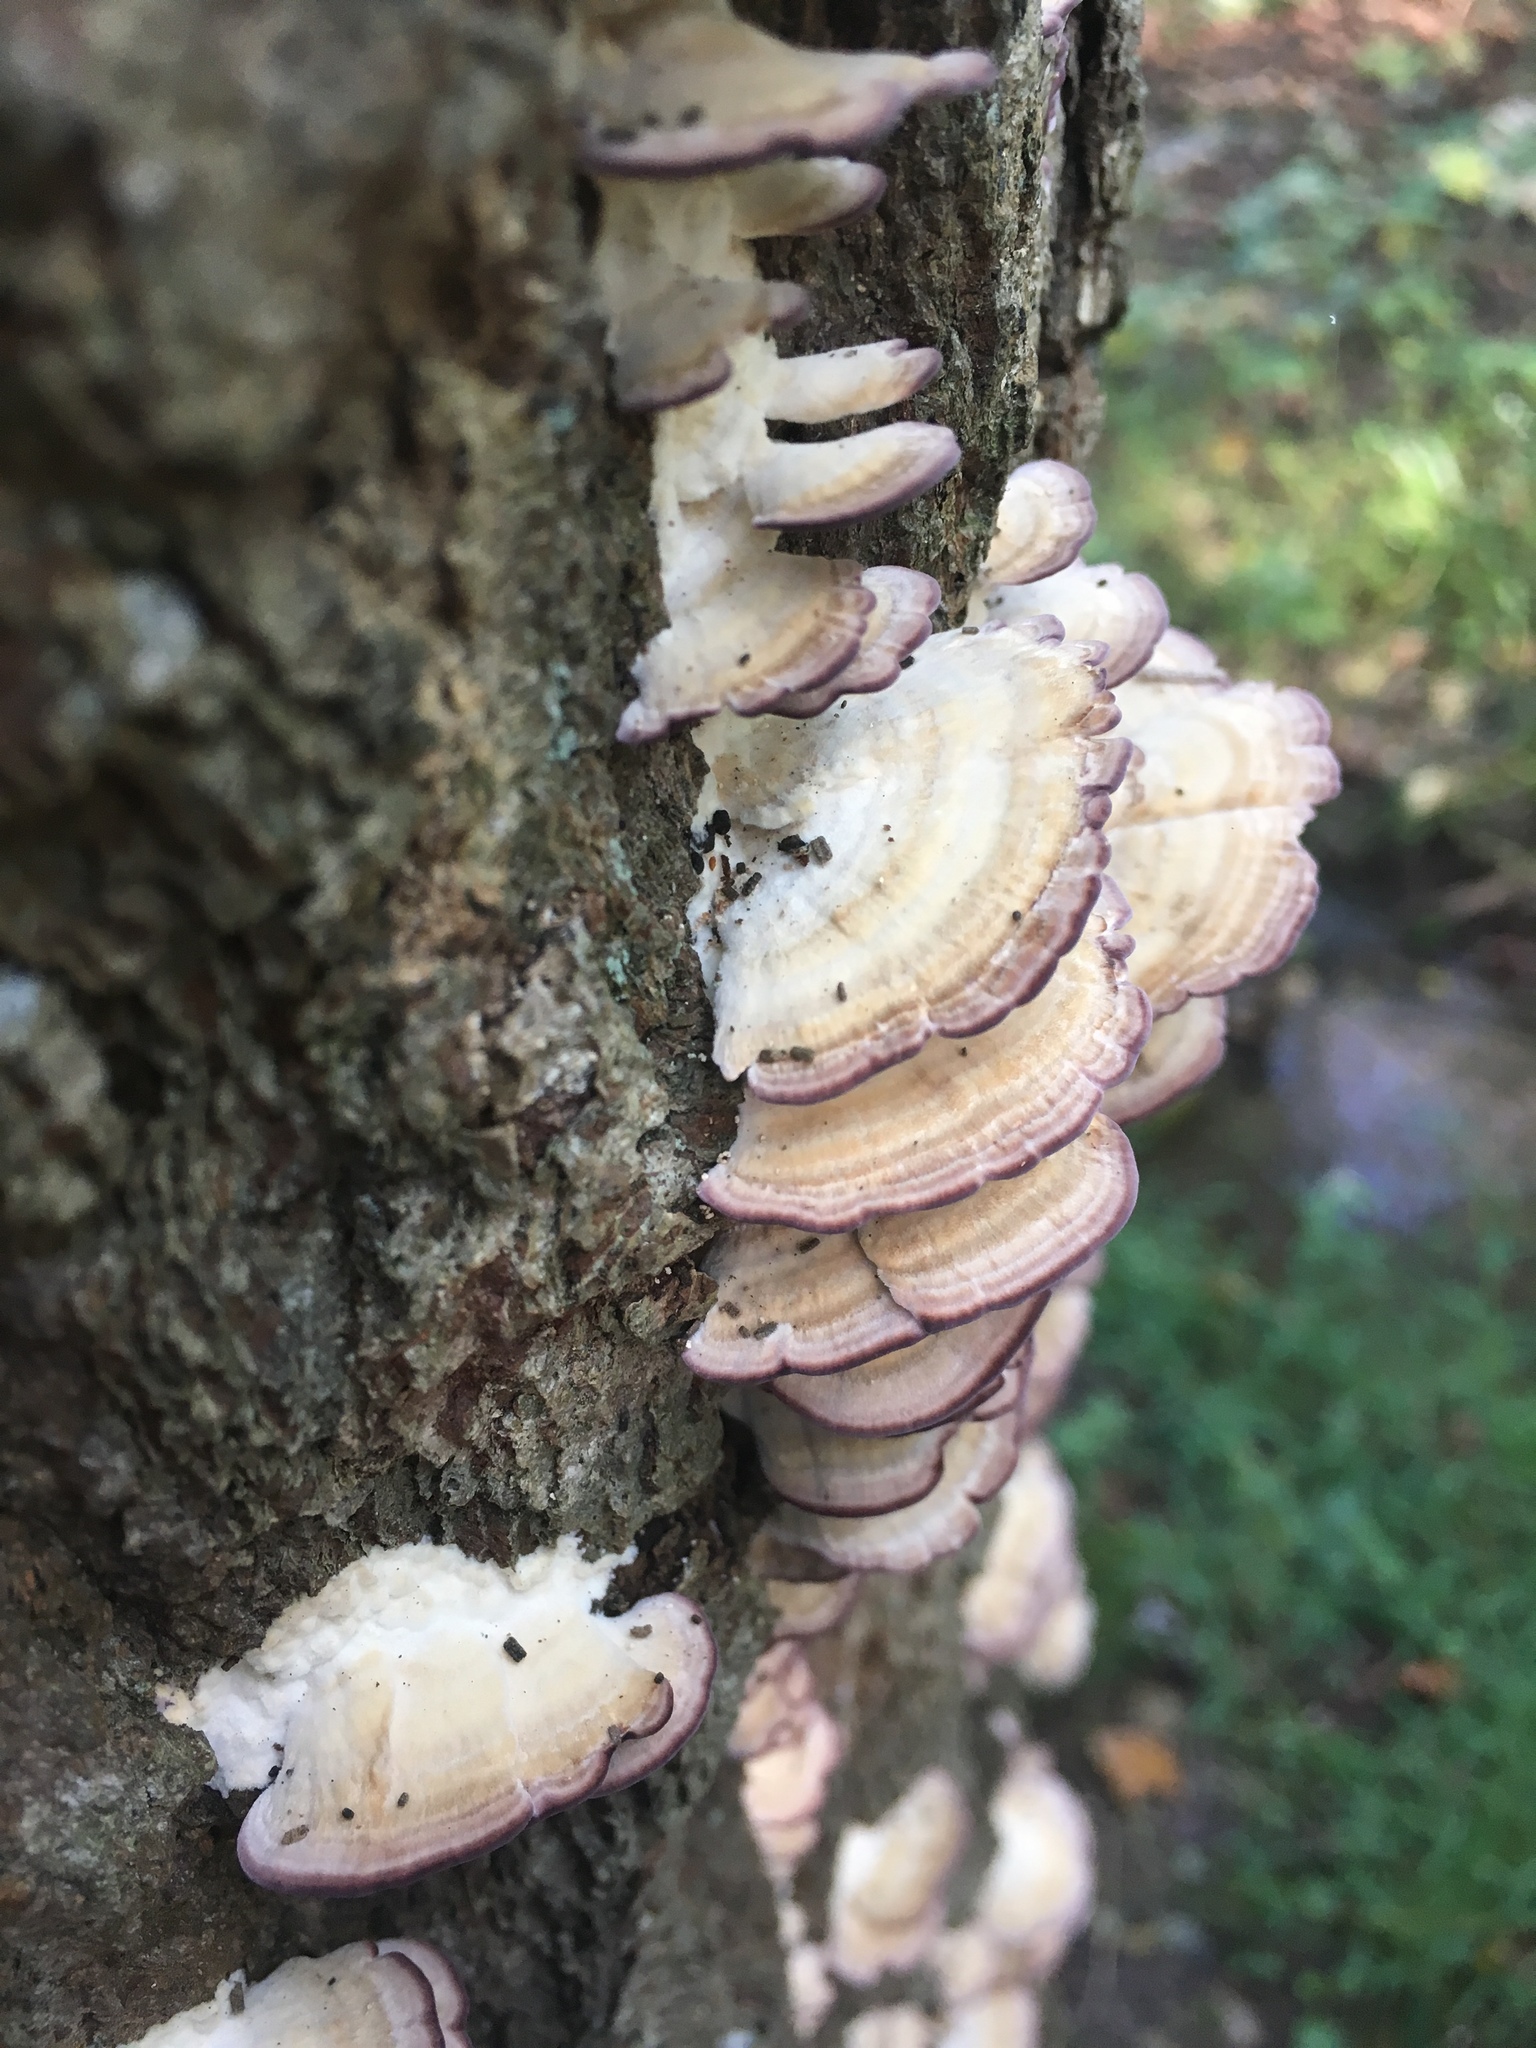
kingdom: Fungi
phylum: Basidiomycota
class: Agaricomycetes
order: Hymenochaetales
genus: Trichaptum
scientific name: Trichaptum biforme
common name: Violet-toothed polypore
